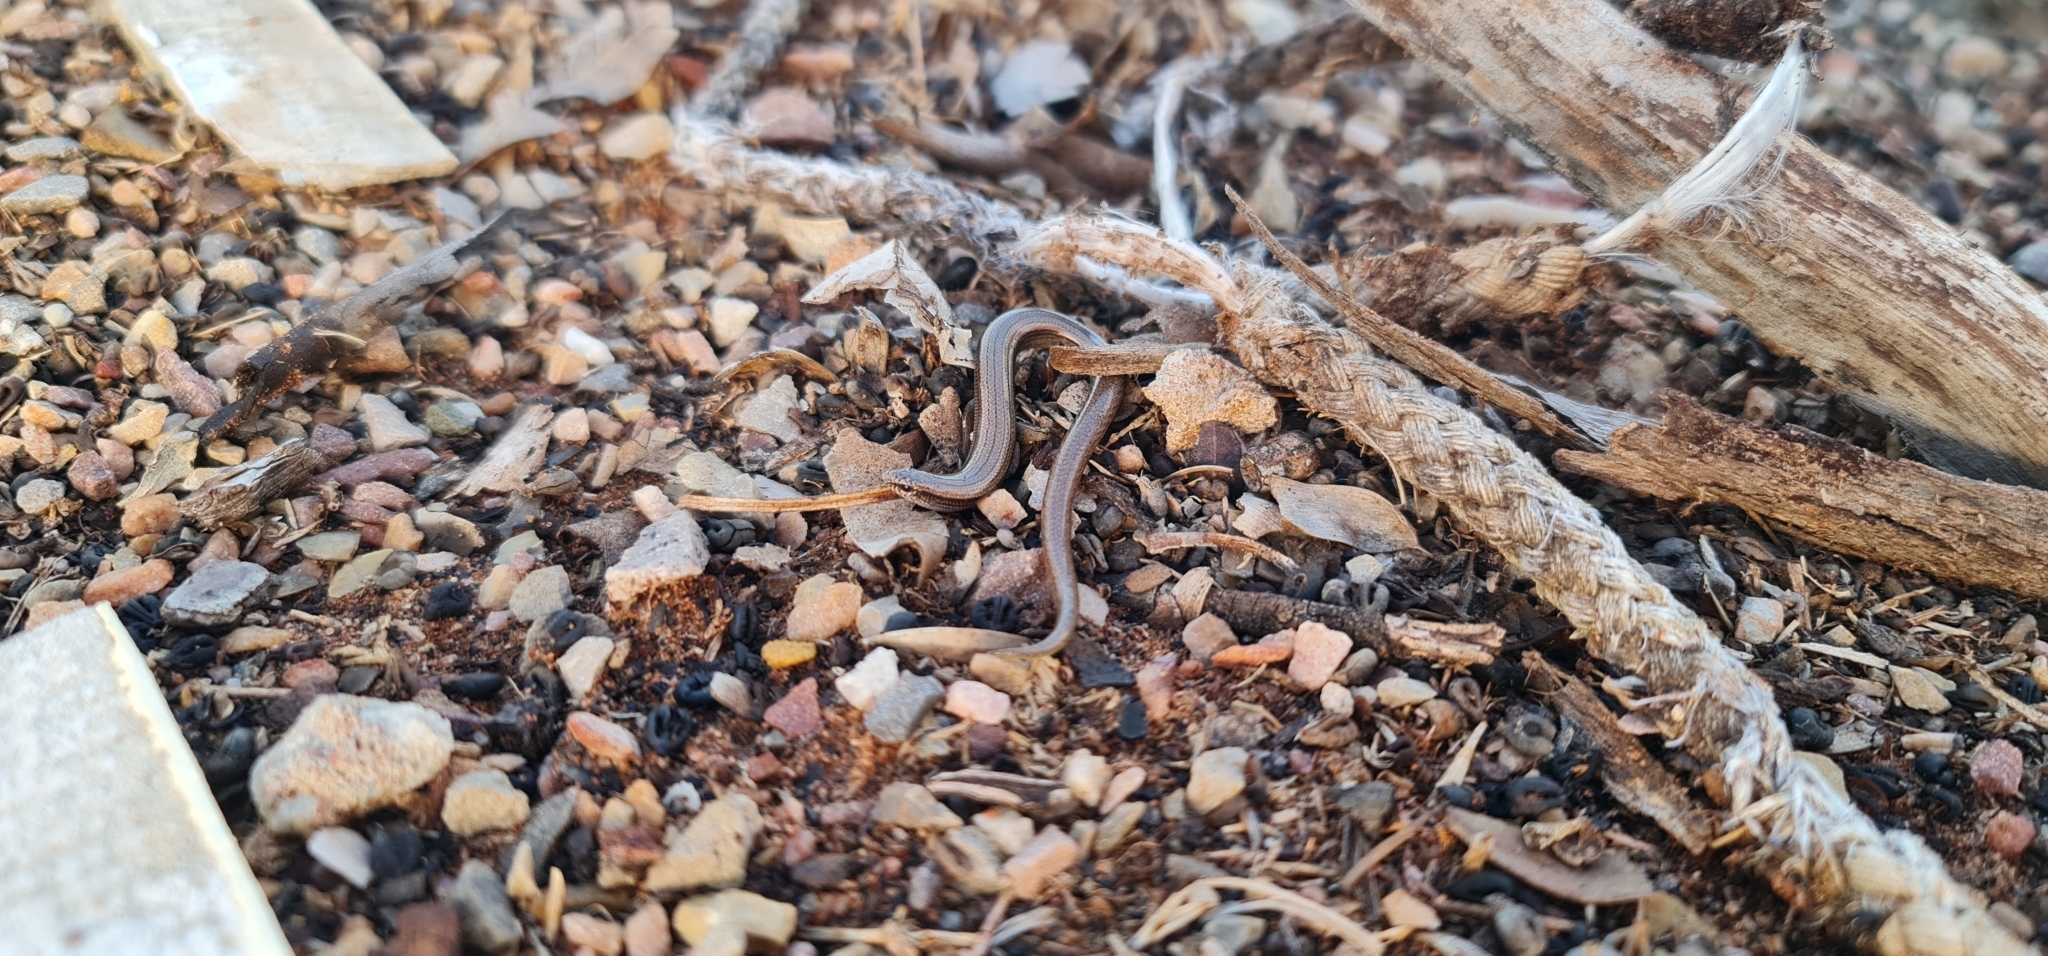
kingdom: Animalia
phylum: Chordata
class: Squamata
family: Scincidae
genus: Lerista
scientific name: Lerista timida
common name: Dwarf three-toed slider
